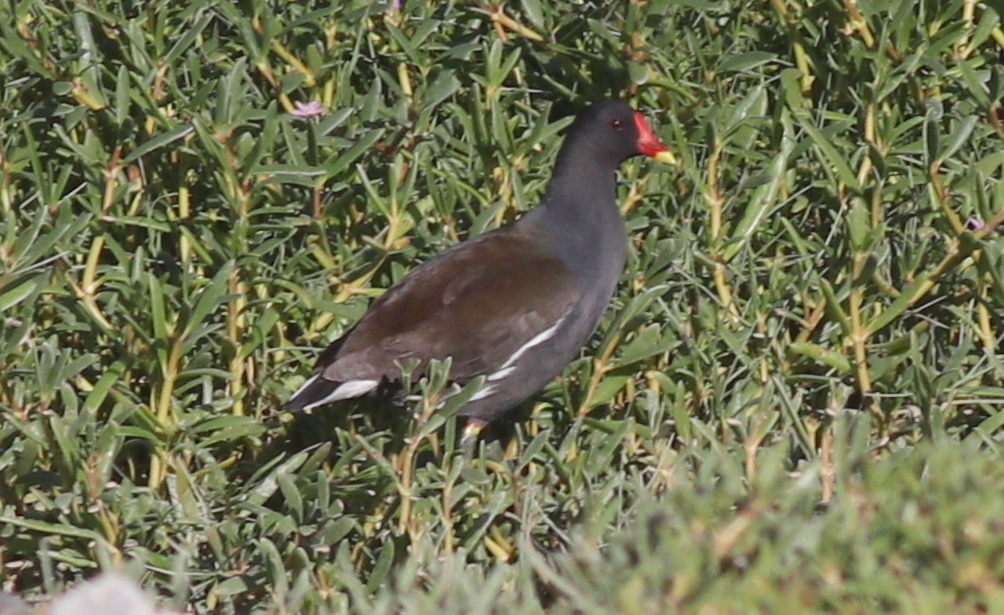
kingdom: Animalia
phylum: Chordata
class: Aves
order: Gruiformes
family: Rallidae
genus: Gallinula
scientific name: Gallinula chloropus
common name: Common moorhen
